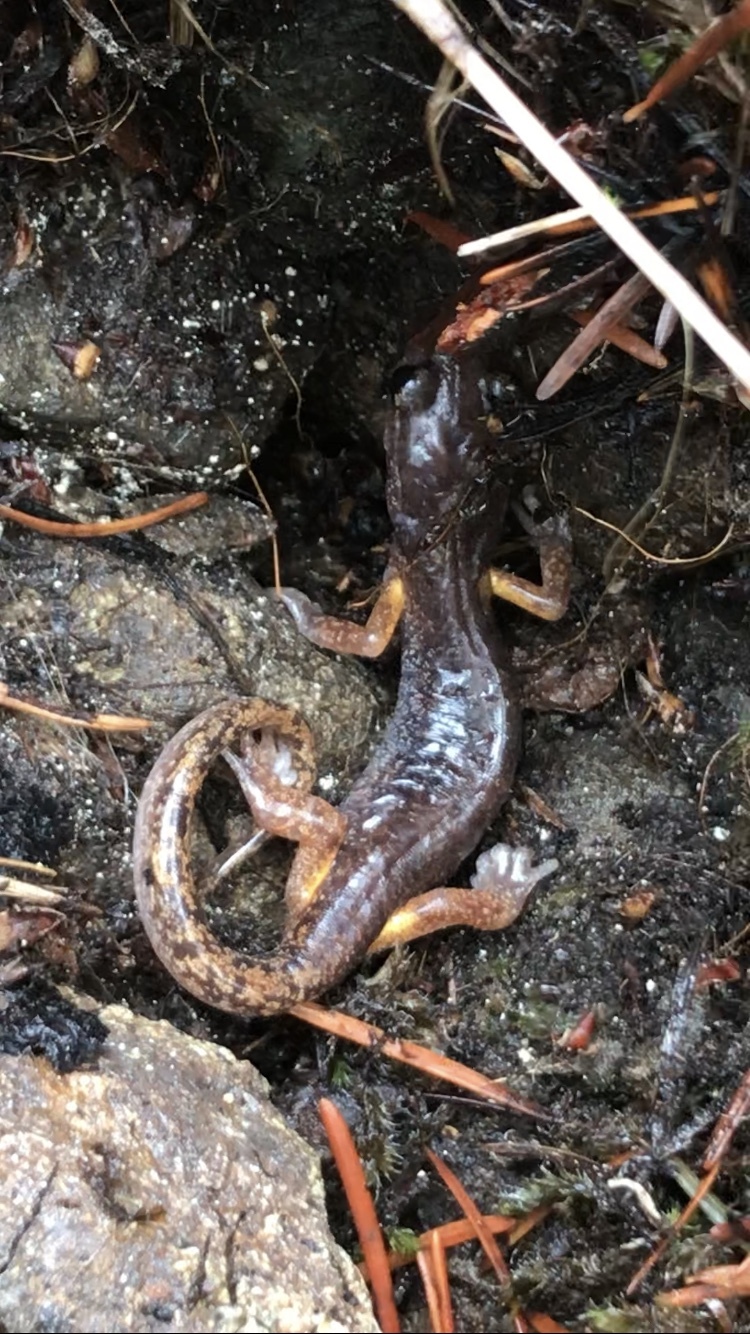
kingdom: Animalia
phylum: Chordata
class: Amphibia
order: Caudata
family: Plethodontidae
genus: Ensatina
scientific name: Ensatina eschscholtzii
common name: Ensatina
